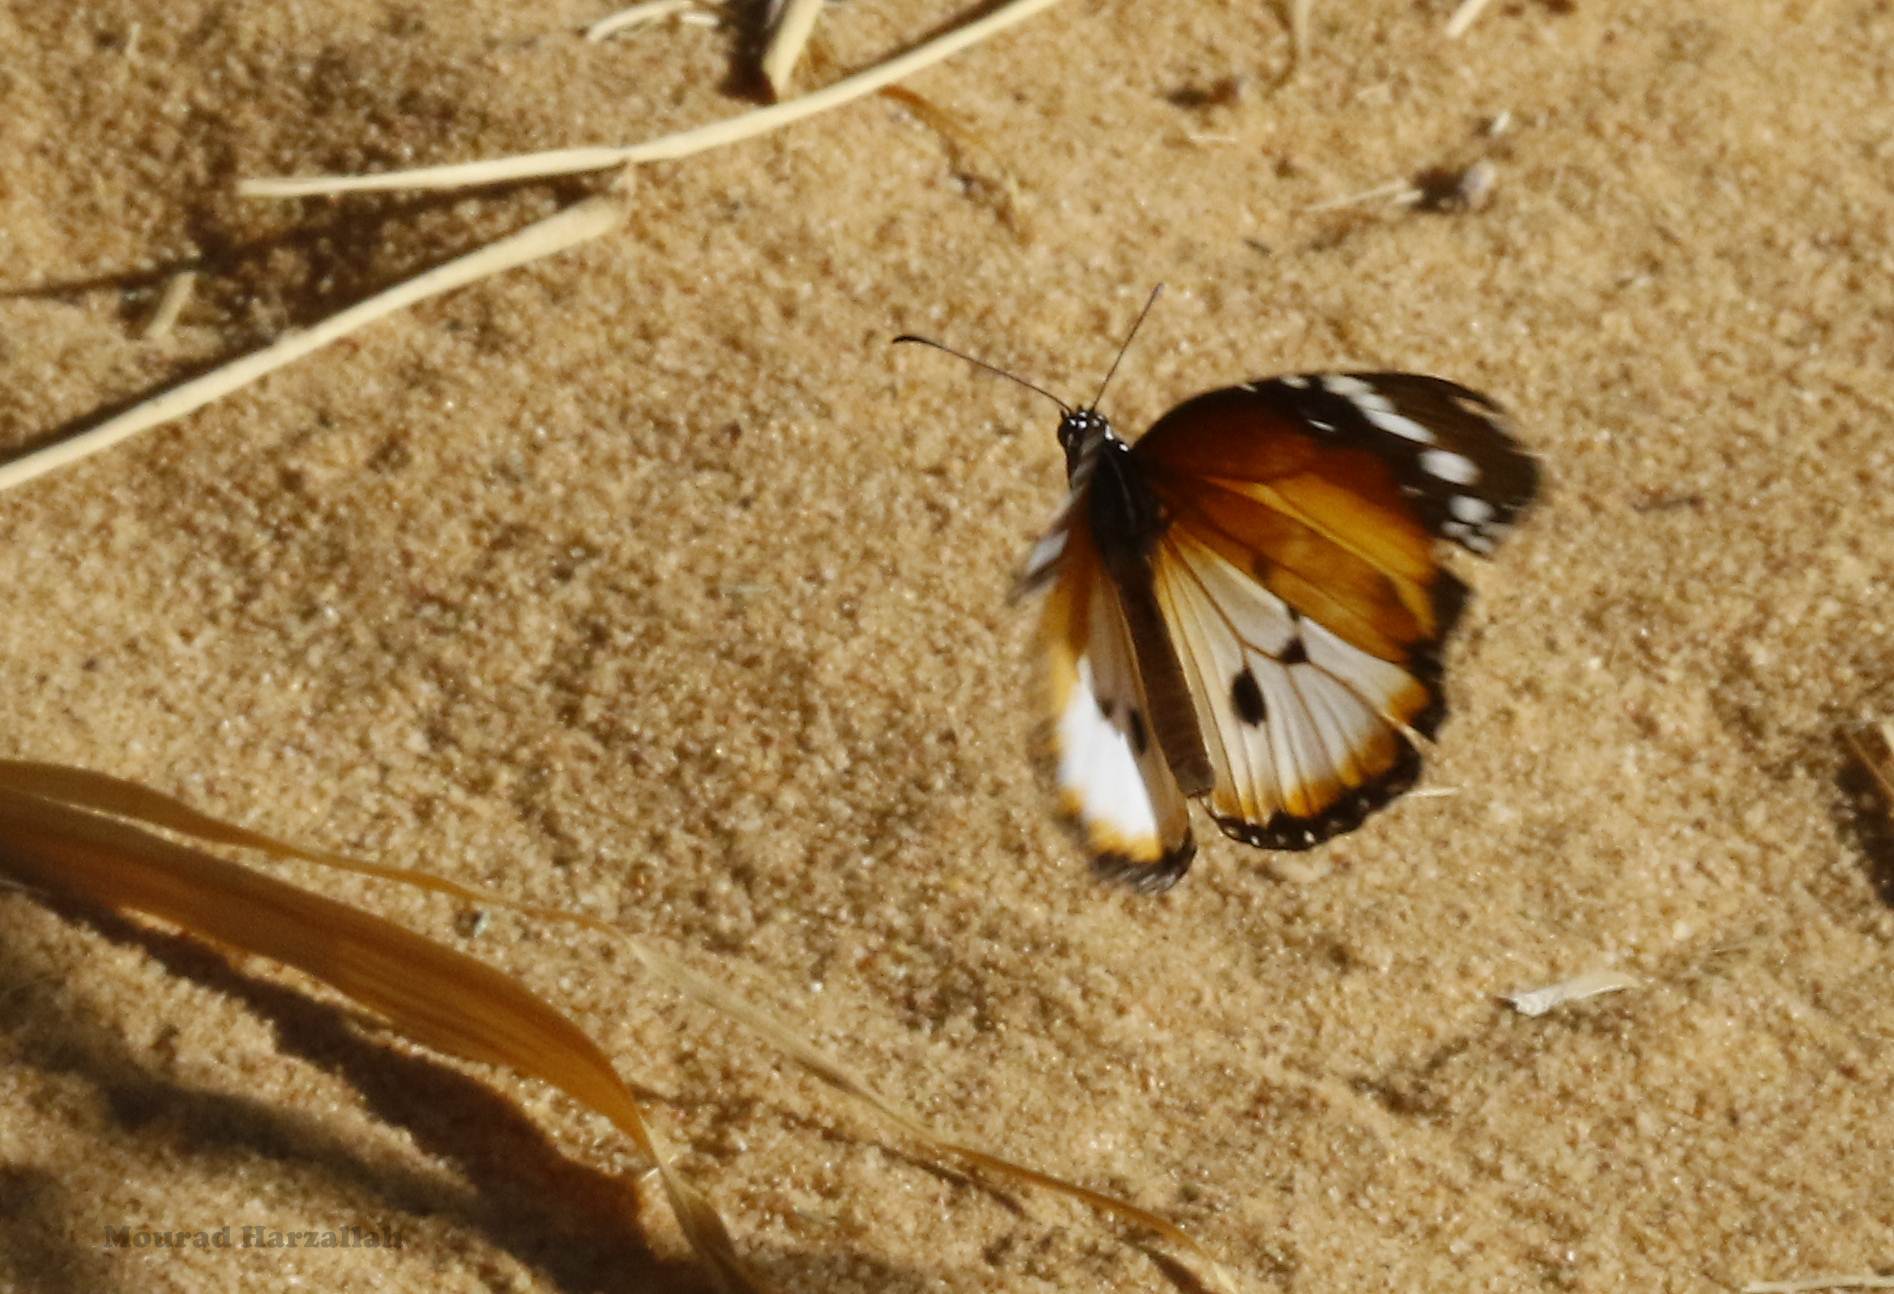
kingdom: Animalia
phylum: Arthropoda
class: Insecta
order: Lepidoptera
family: Nymphalidae
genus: Danaus
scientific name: Danaus chrysippus
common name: Plain tiger
